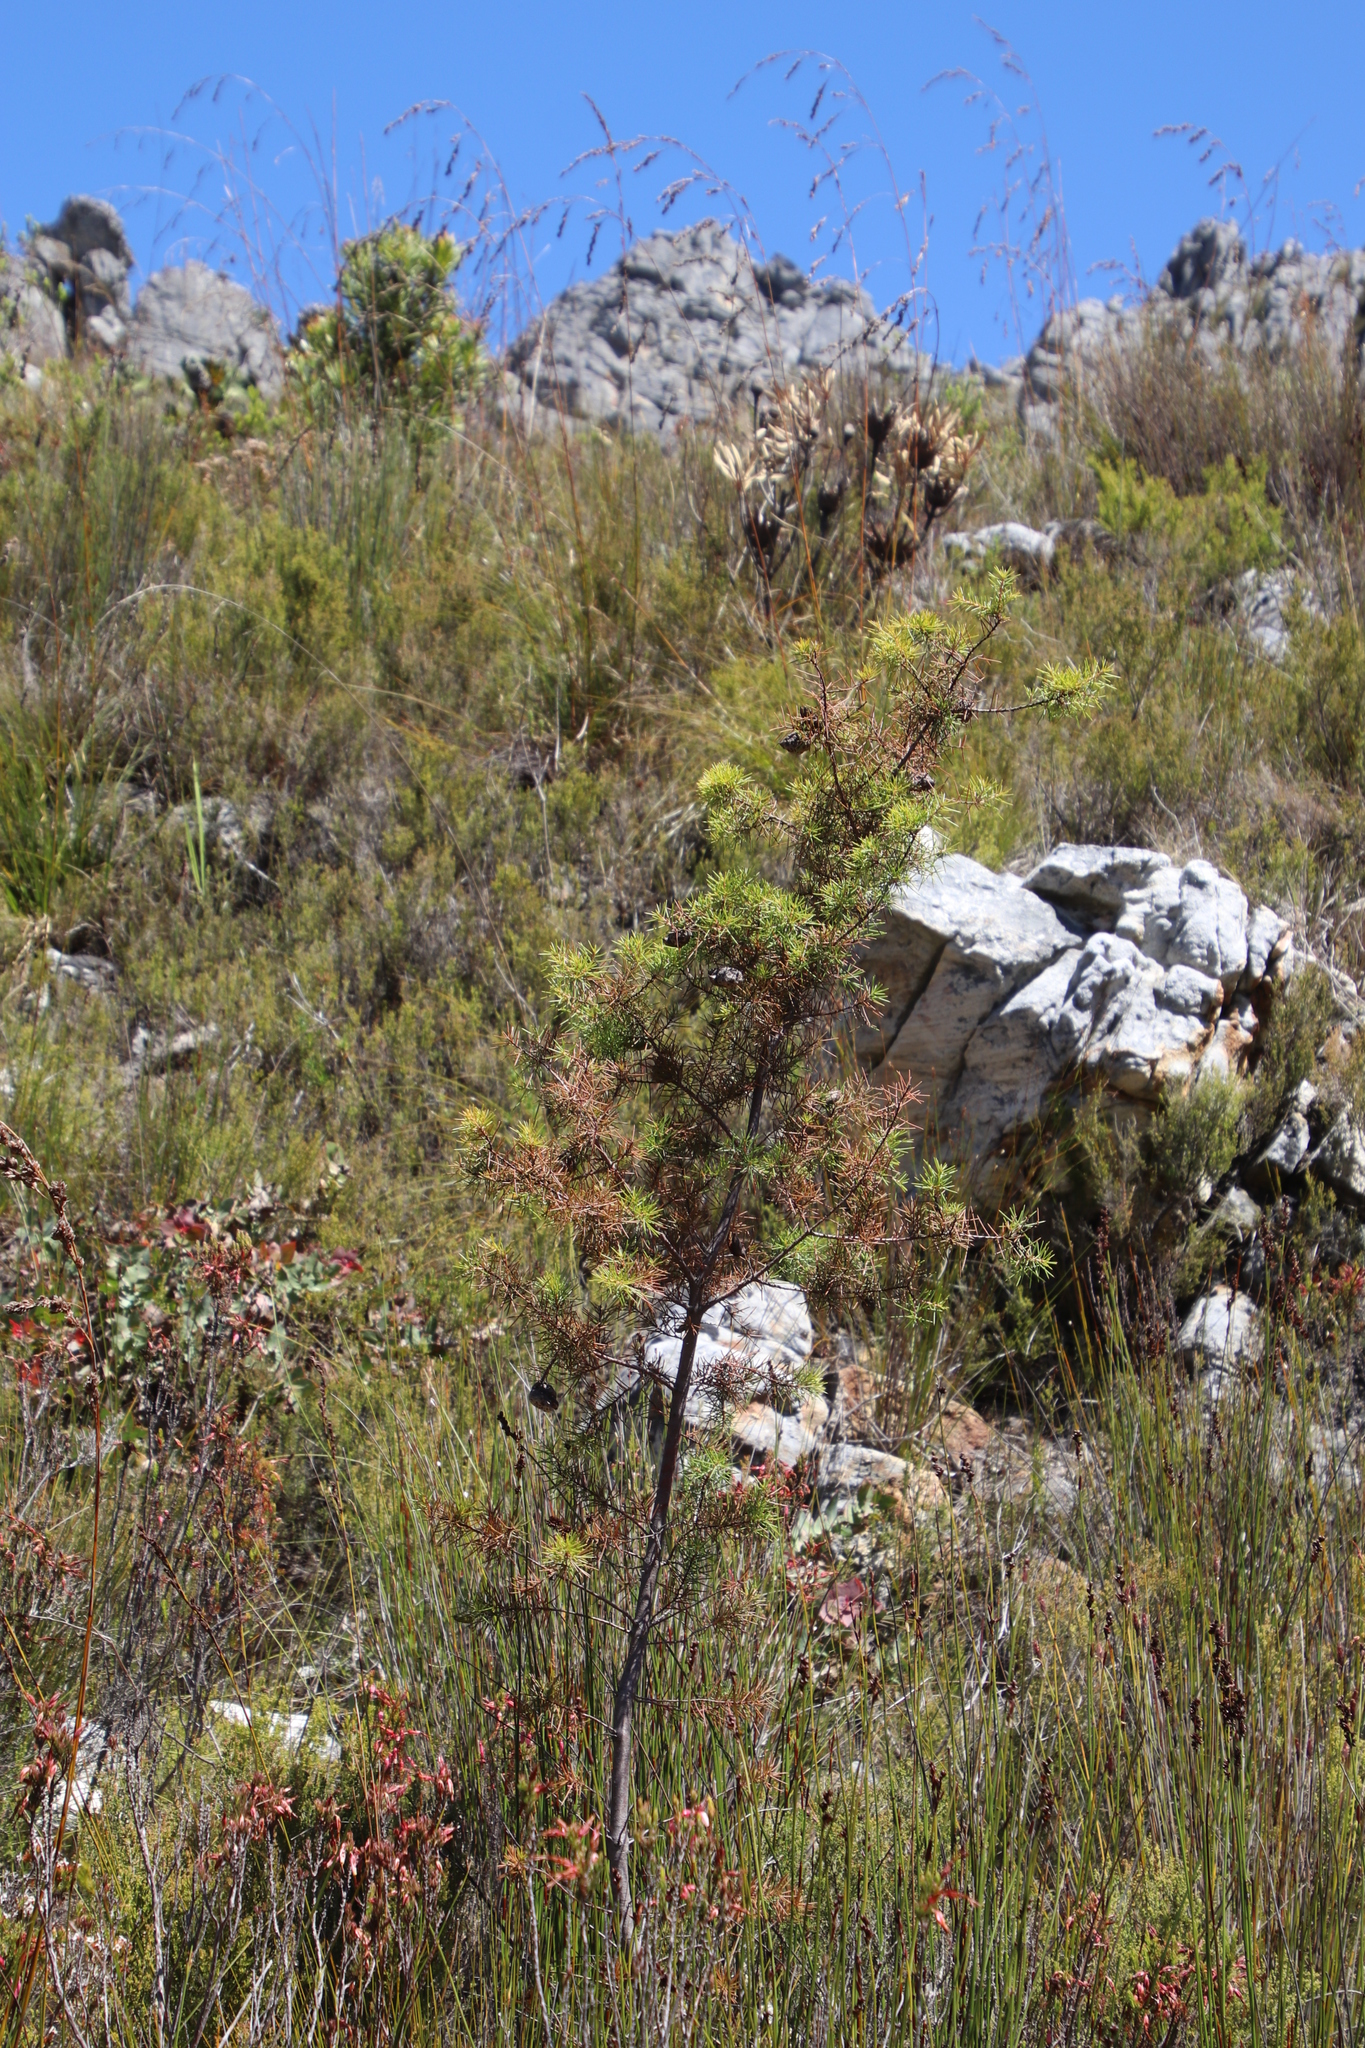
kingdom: Plantae
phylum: Tracheophyta
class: Magnoliopsida
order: Proteales
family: Proteaceae
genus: Hakea
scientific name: Hakea sericea
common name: Needle bush
